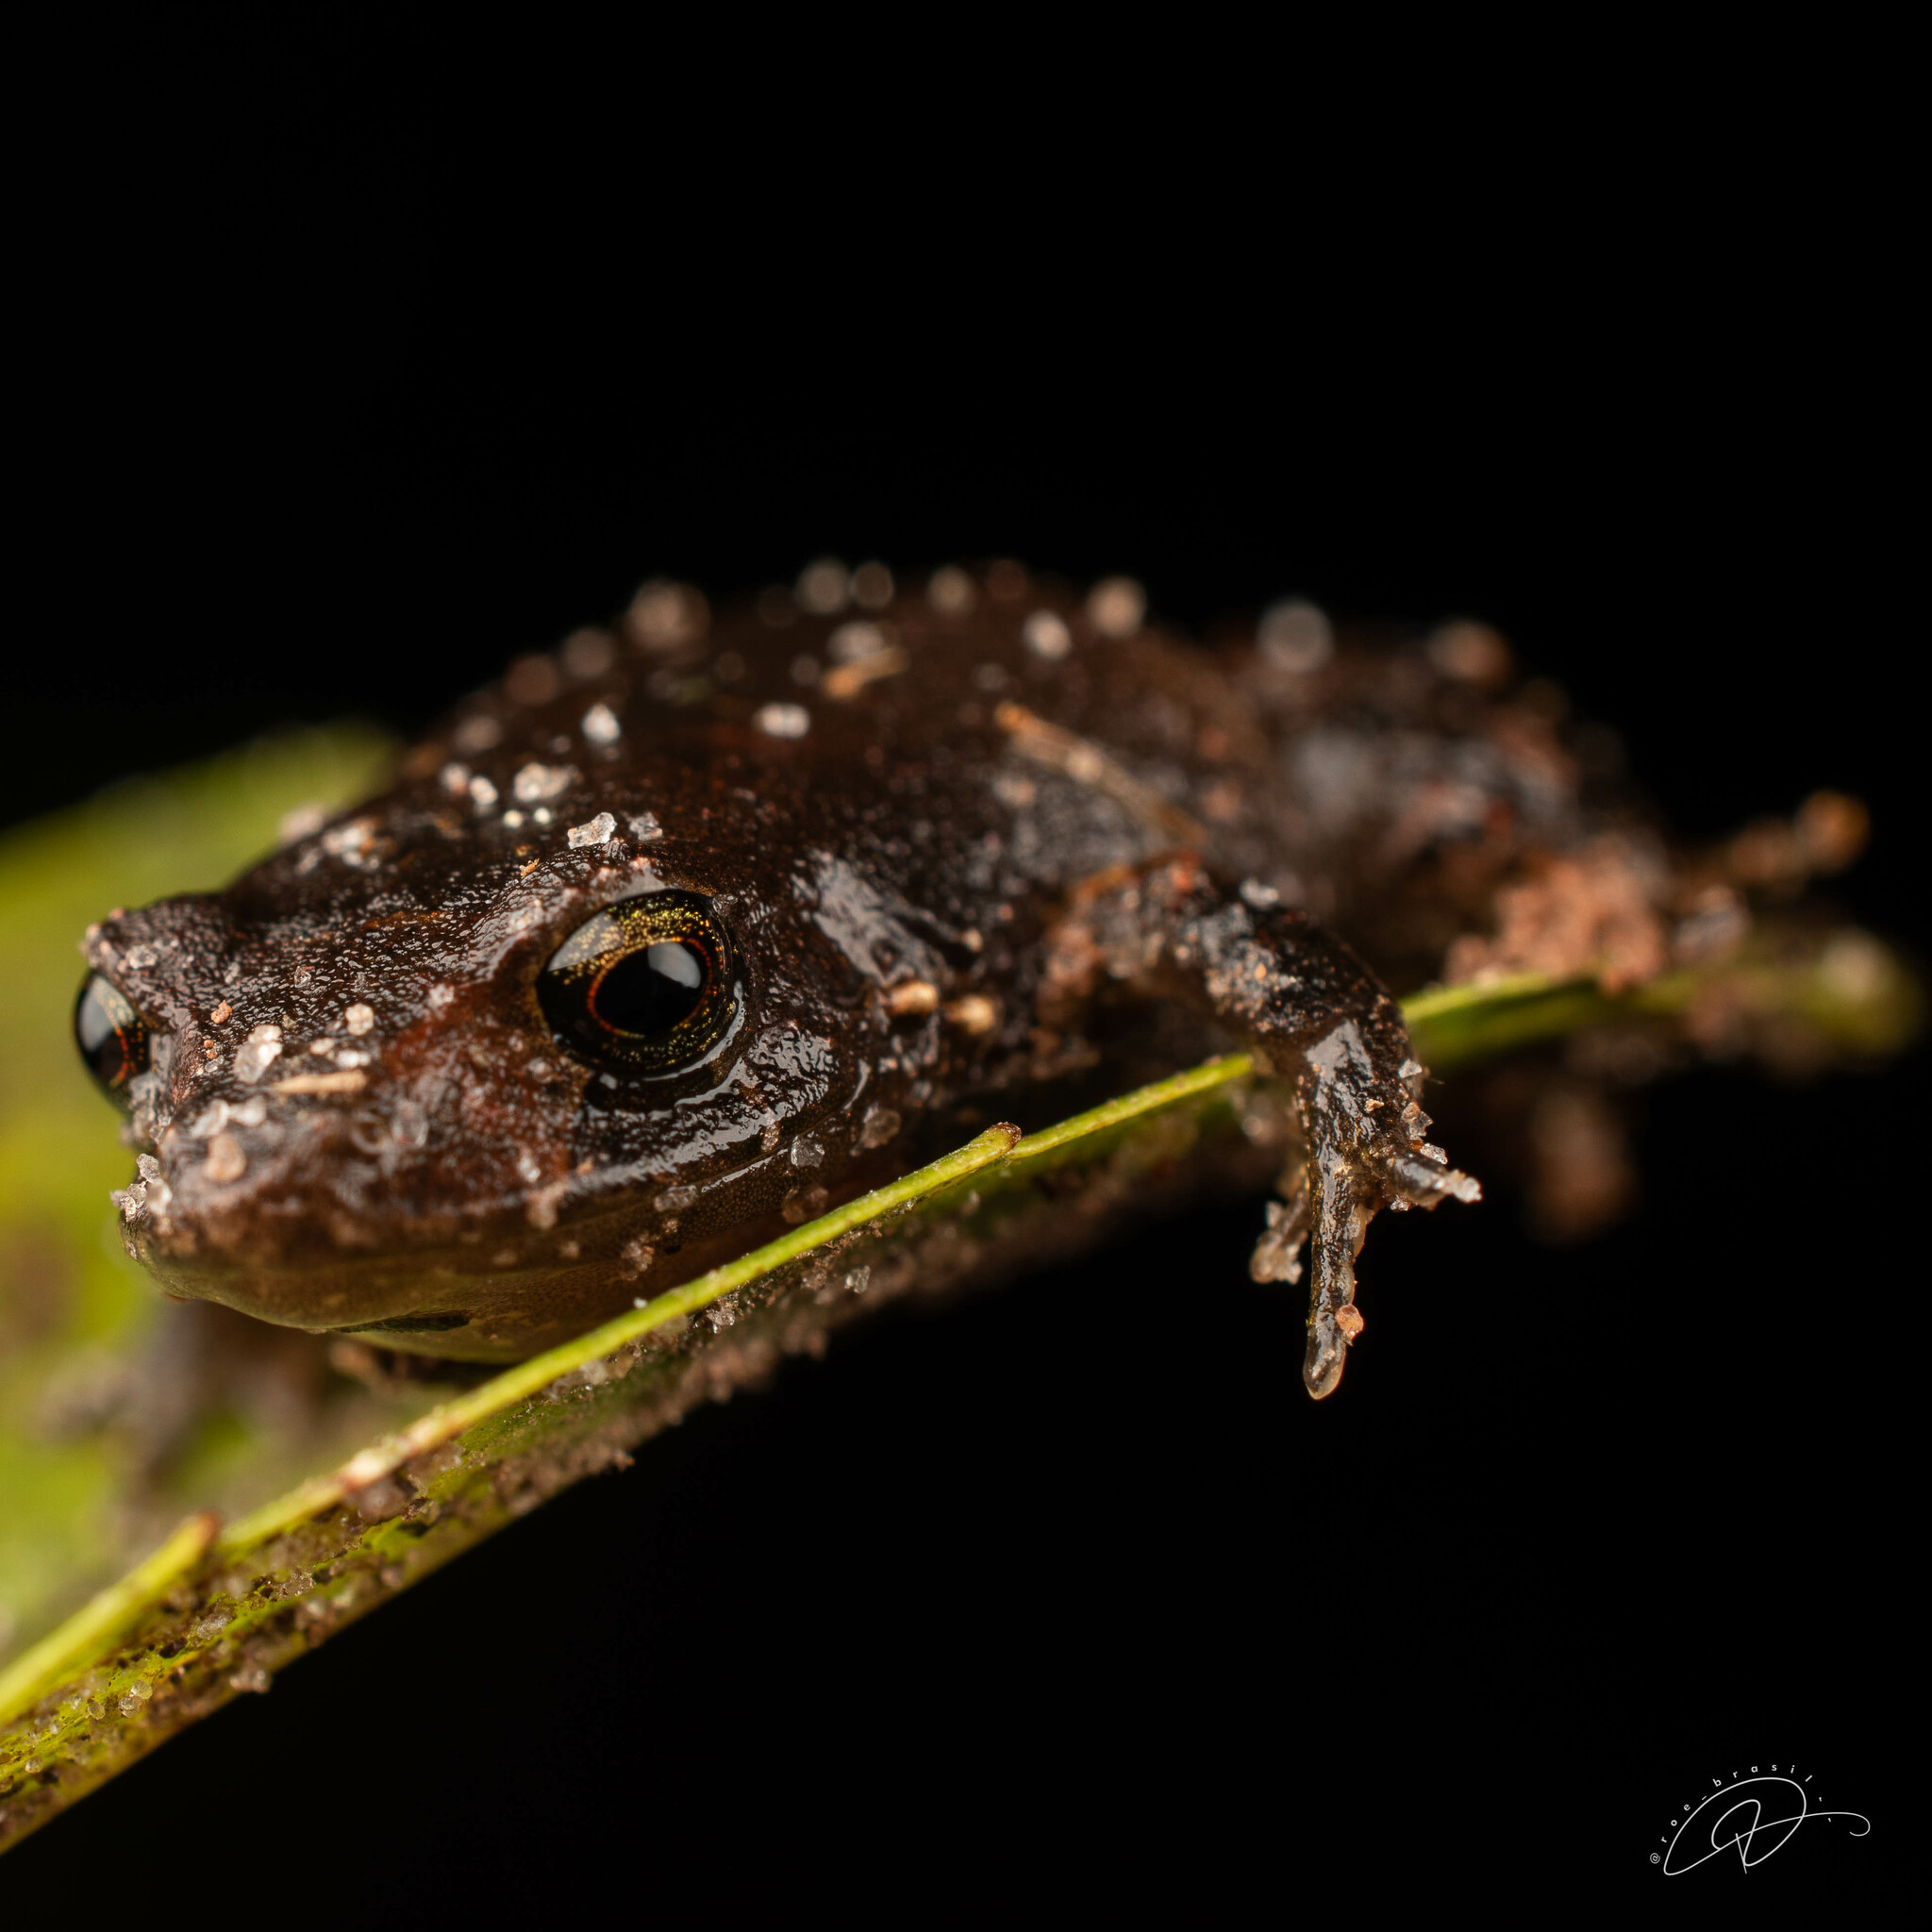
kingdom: Animalia
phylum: Chordata
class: Amphibia
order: Anura
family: Brachycephalidae
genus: Ischnocnema
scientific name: Ischnocnema parva
